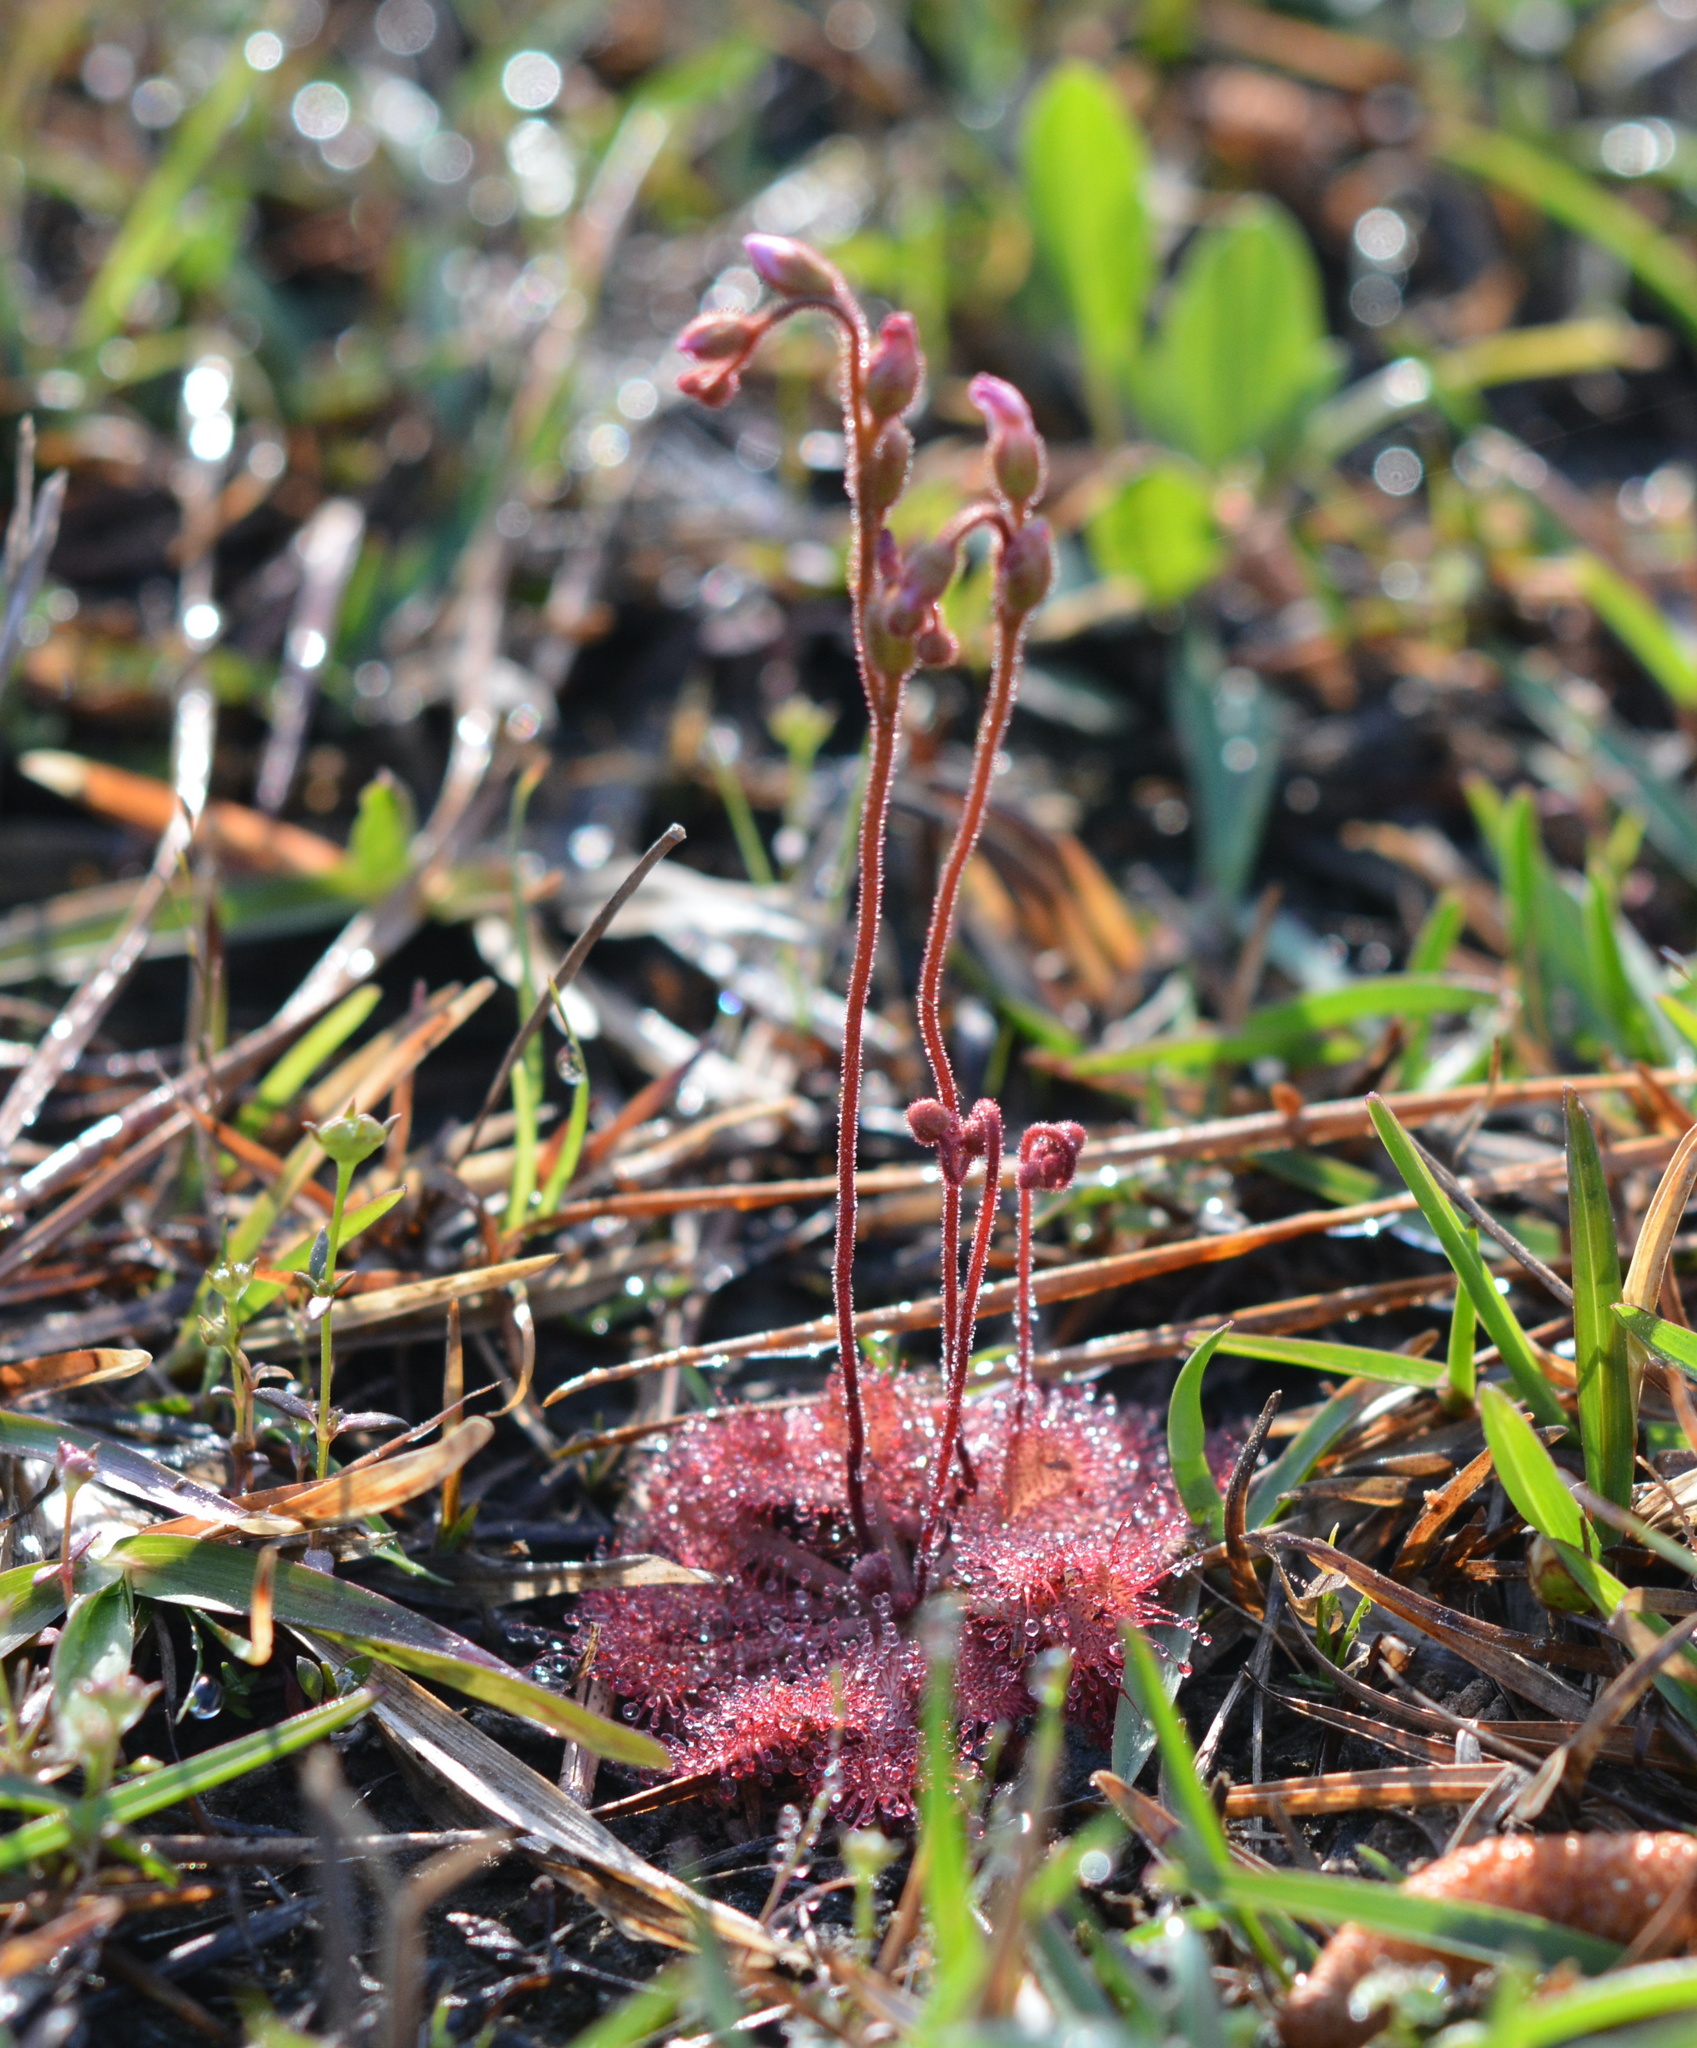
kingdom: Plantae
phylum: Tracheophyta
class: Magnoliopsida
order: Caryophyllales
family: Droseraceae
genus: Drosera
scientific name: Drosera brevifolia
